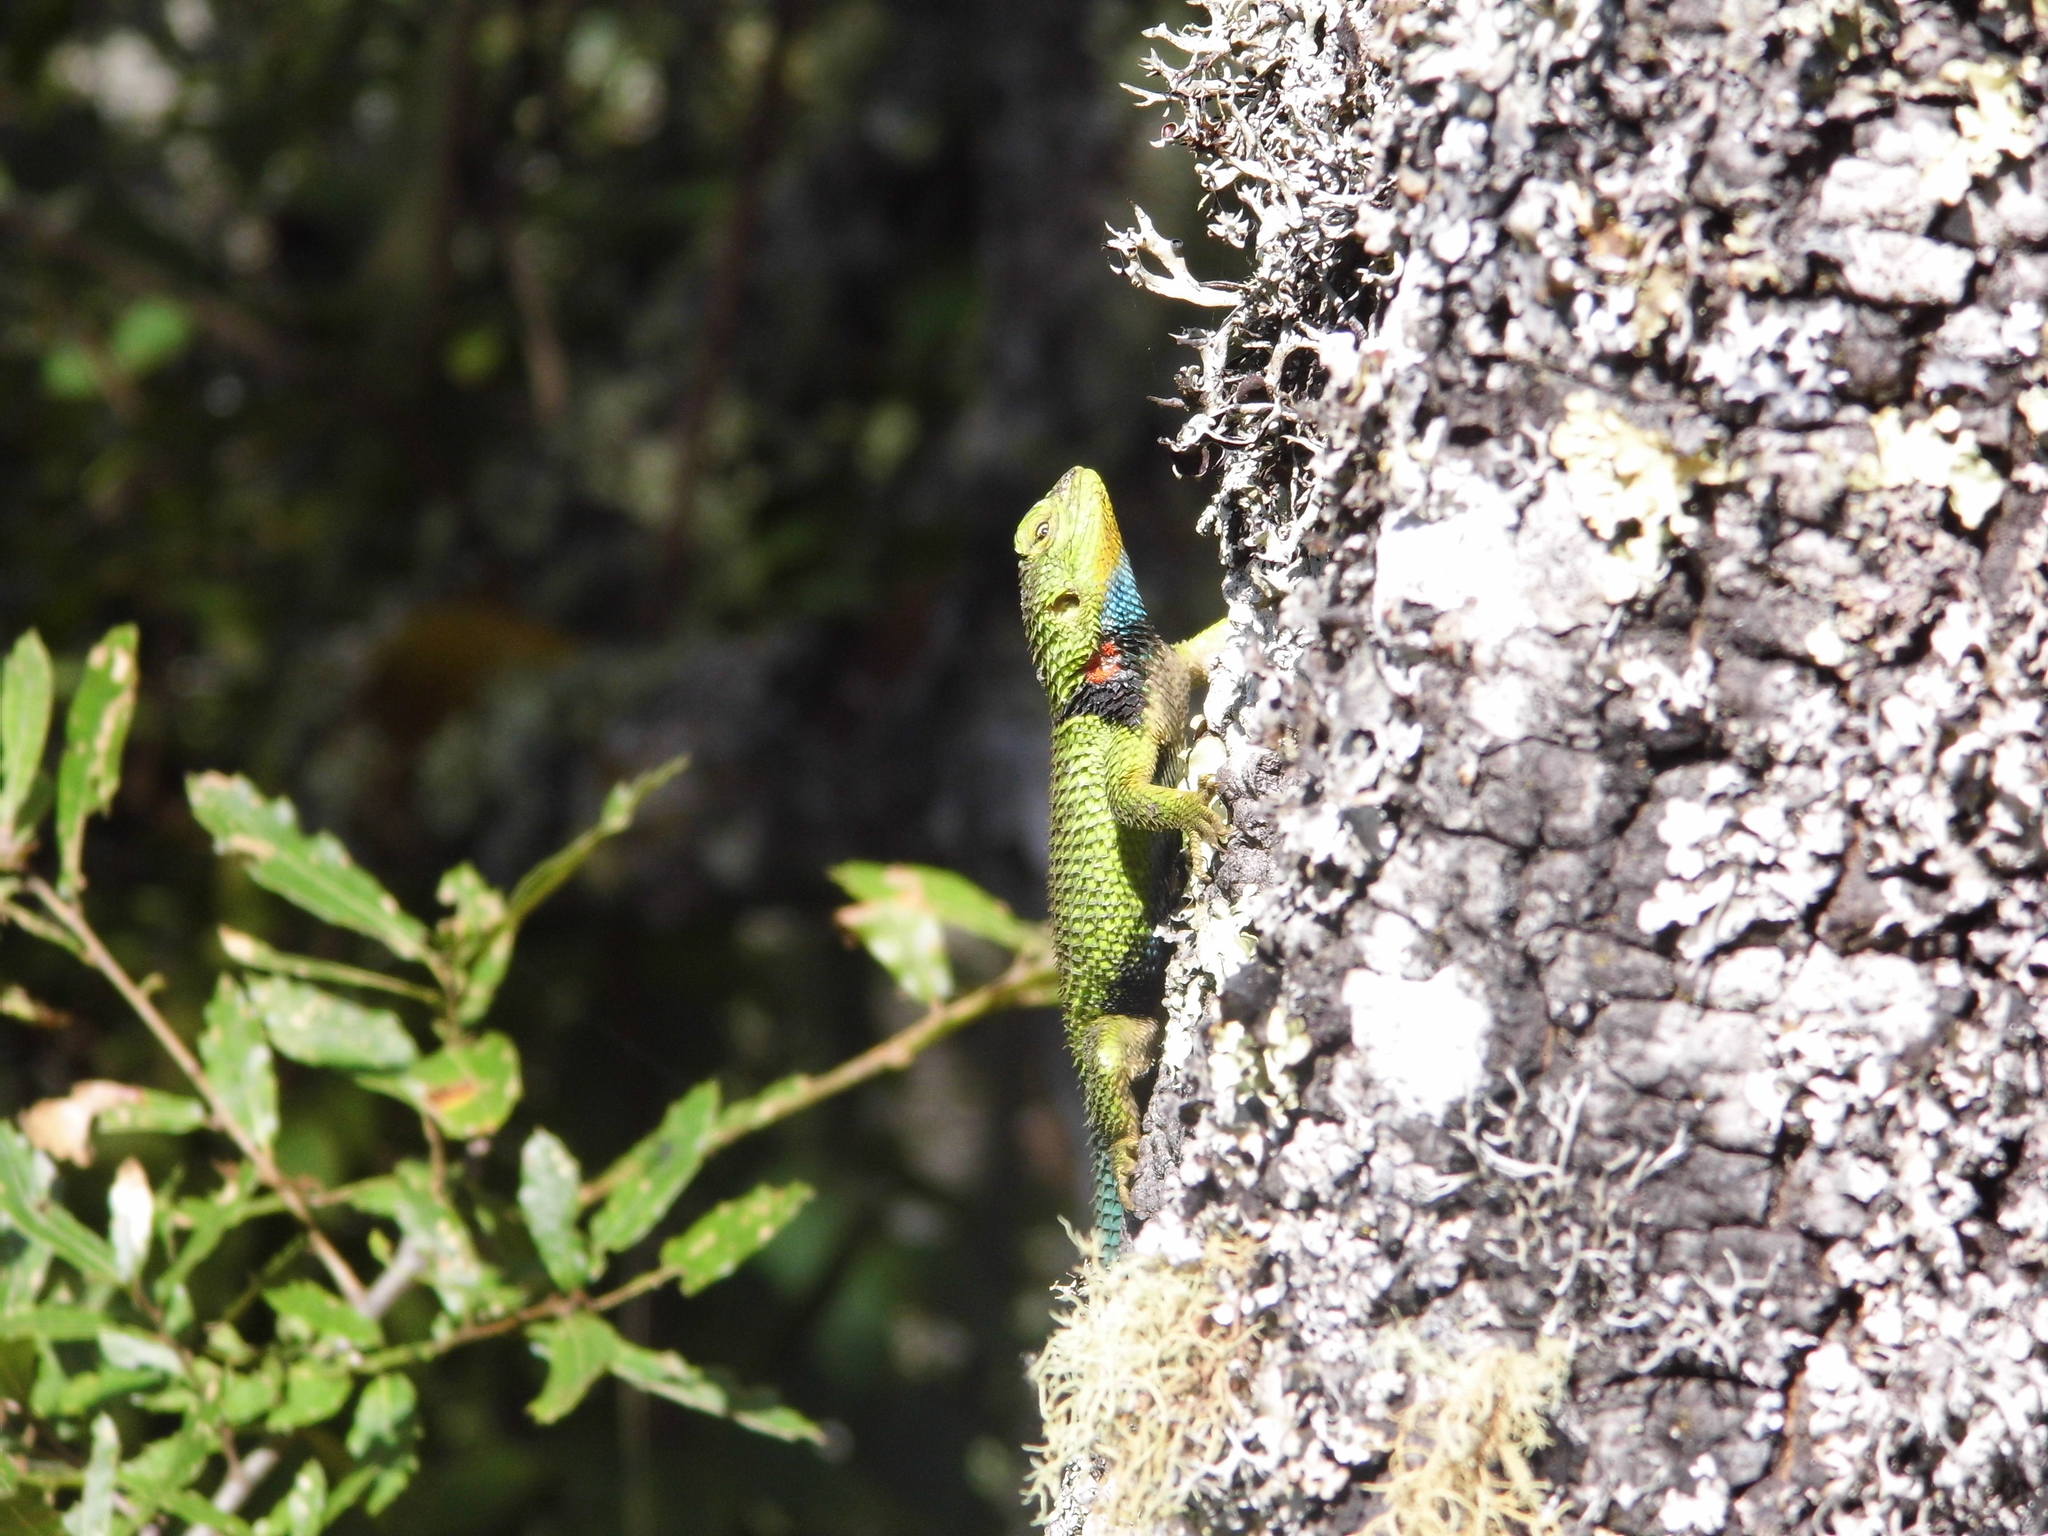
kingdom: Animalia
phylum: Chordata
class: Squamata
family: Phrynosomatidae
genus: Sceloporus
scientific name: Sceloporus formosus
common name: Mexican emerald spiny lizard
